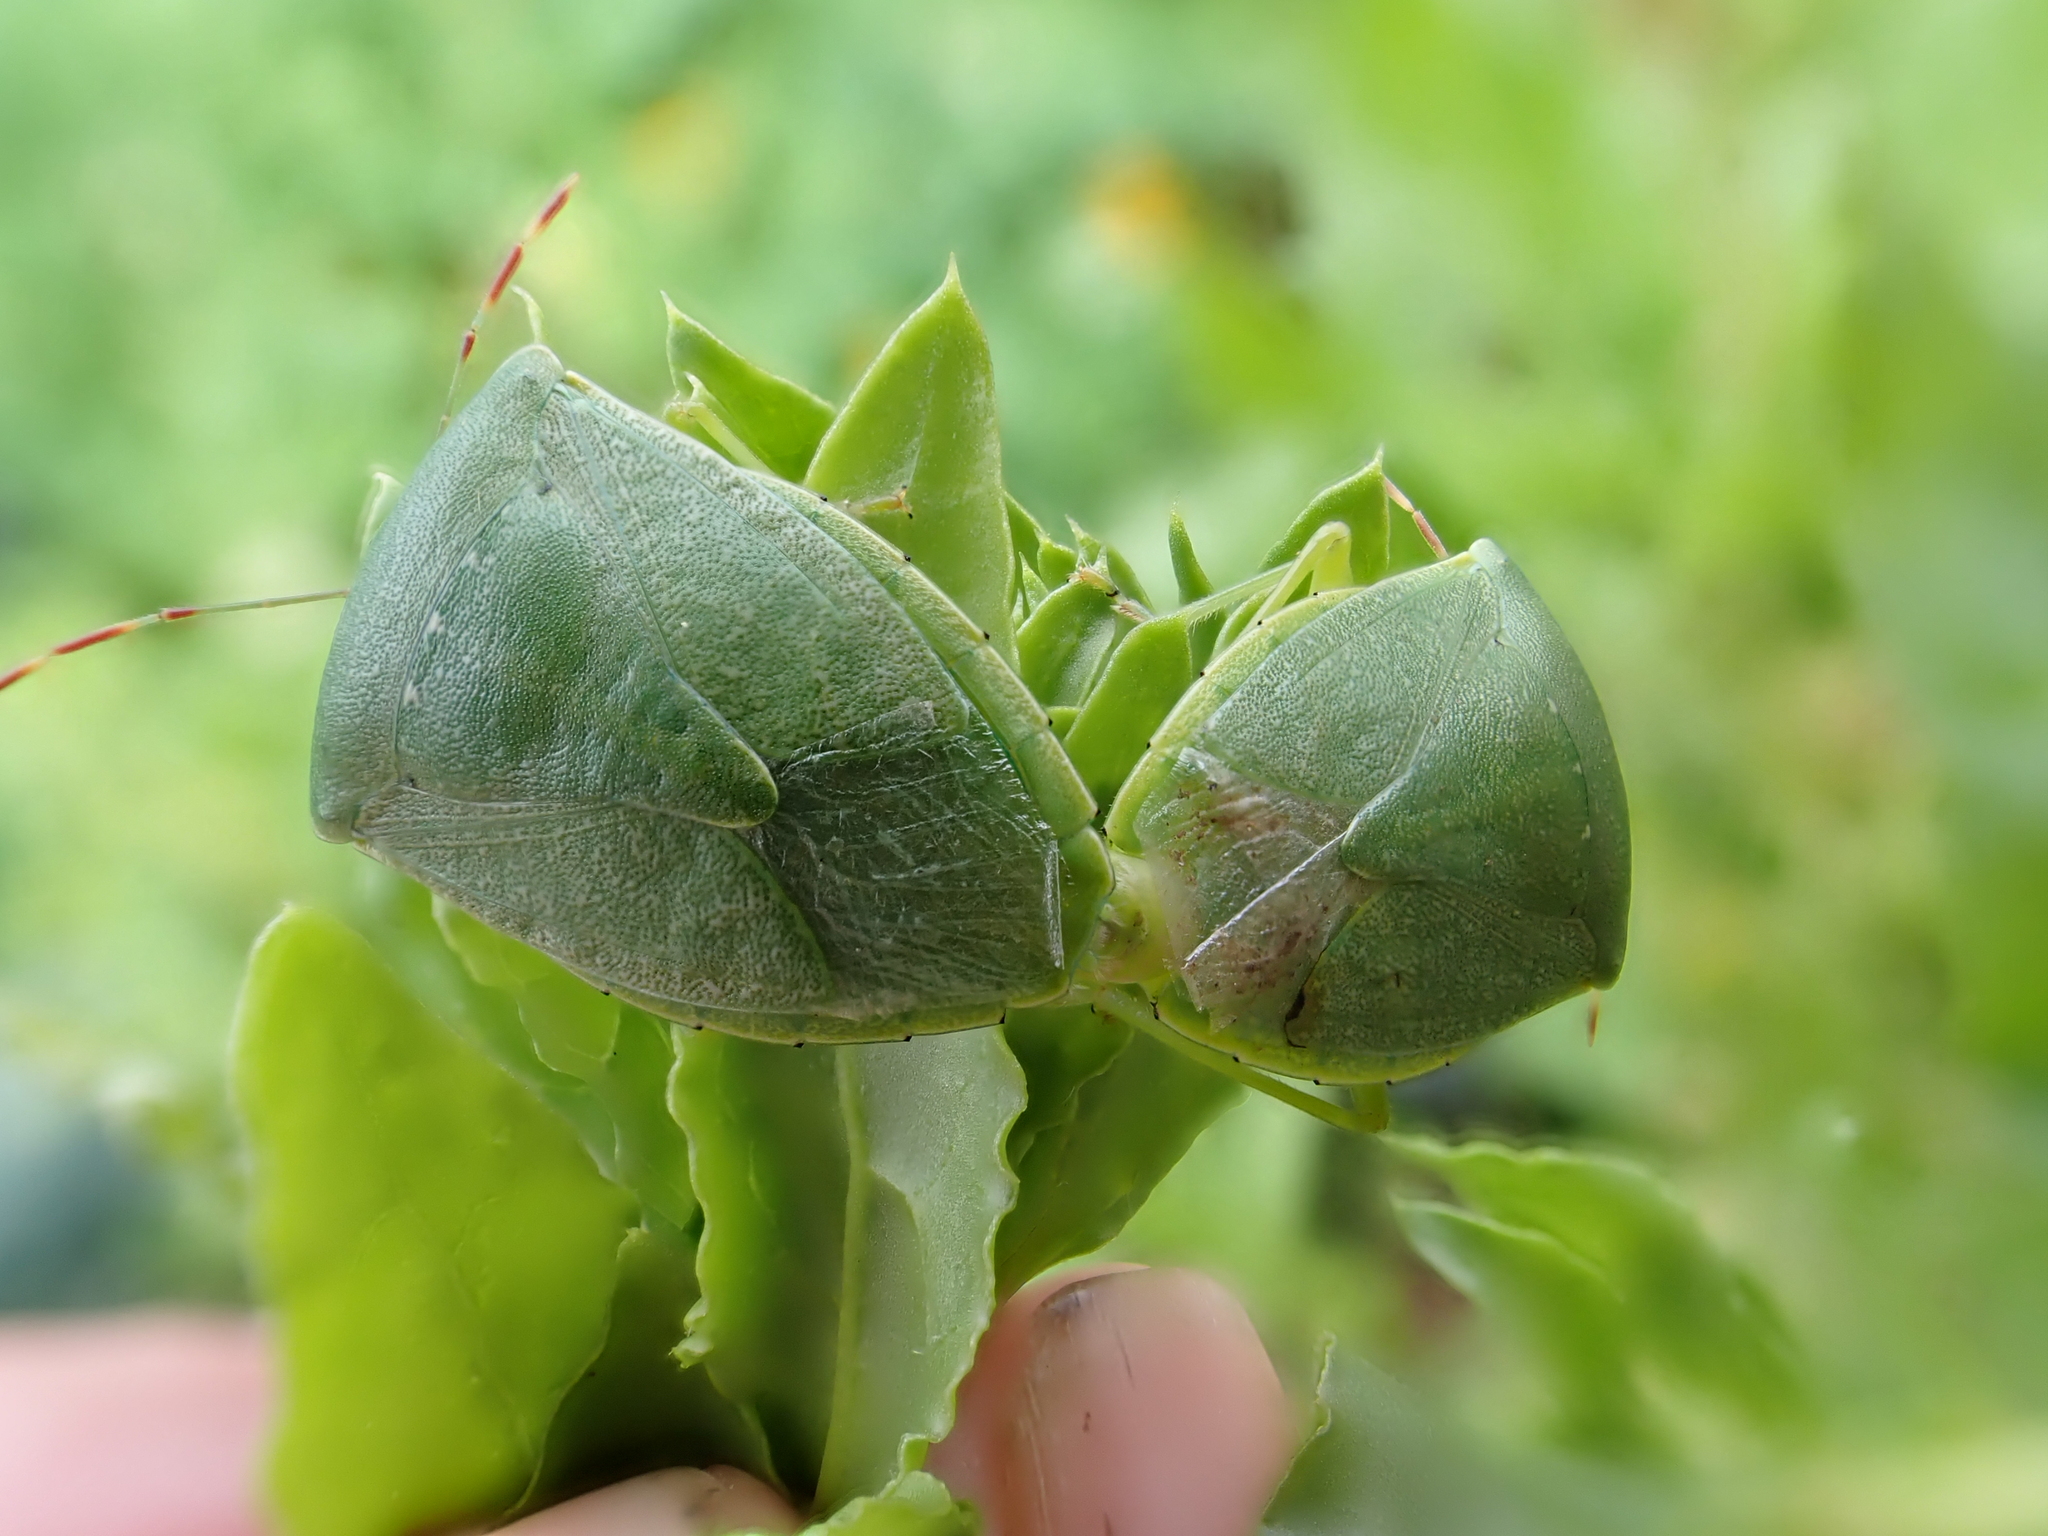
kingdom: Animalia
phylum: Arthropoda
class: Insecta
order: Hemiptera
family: Pentatomidae
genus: Nezara
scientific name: Nezara viridula
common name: Southern green stink bug
